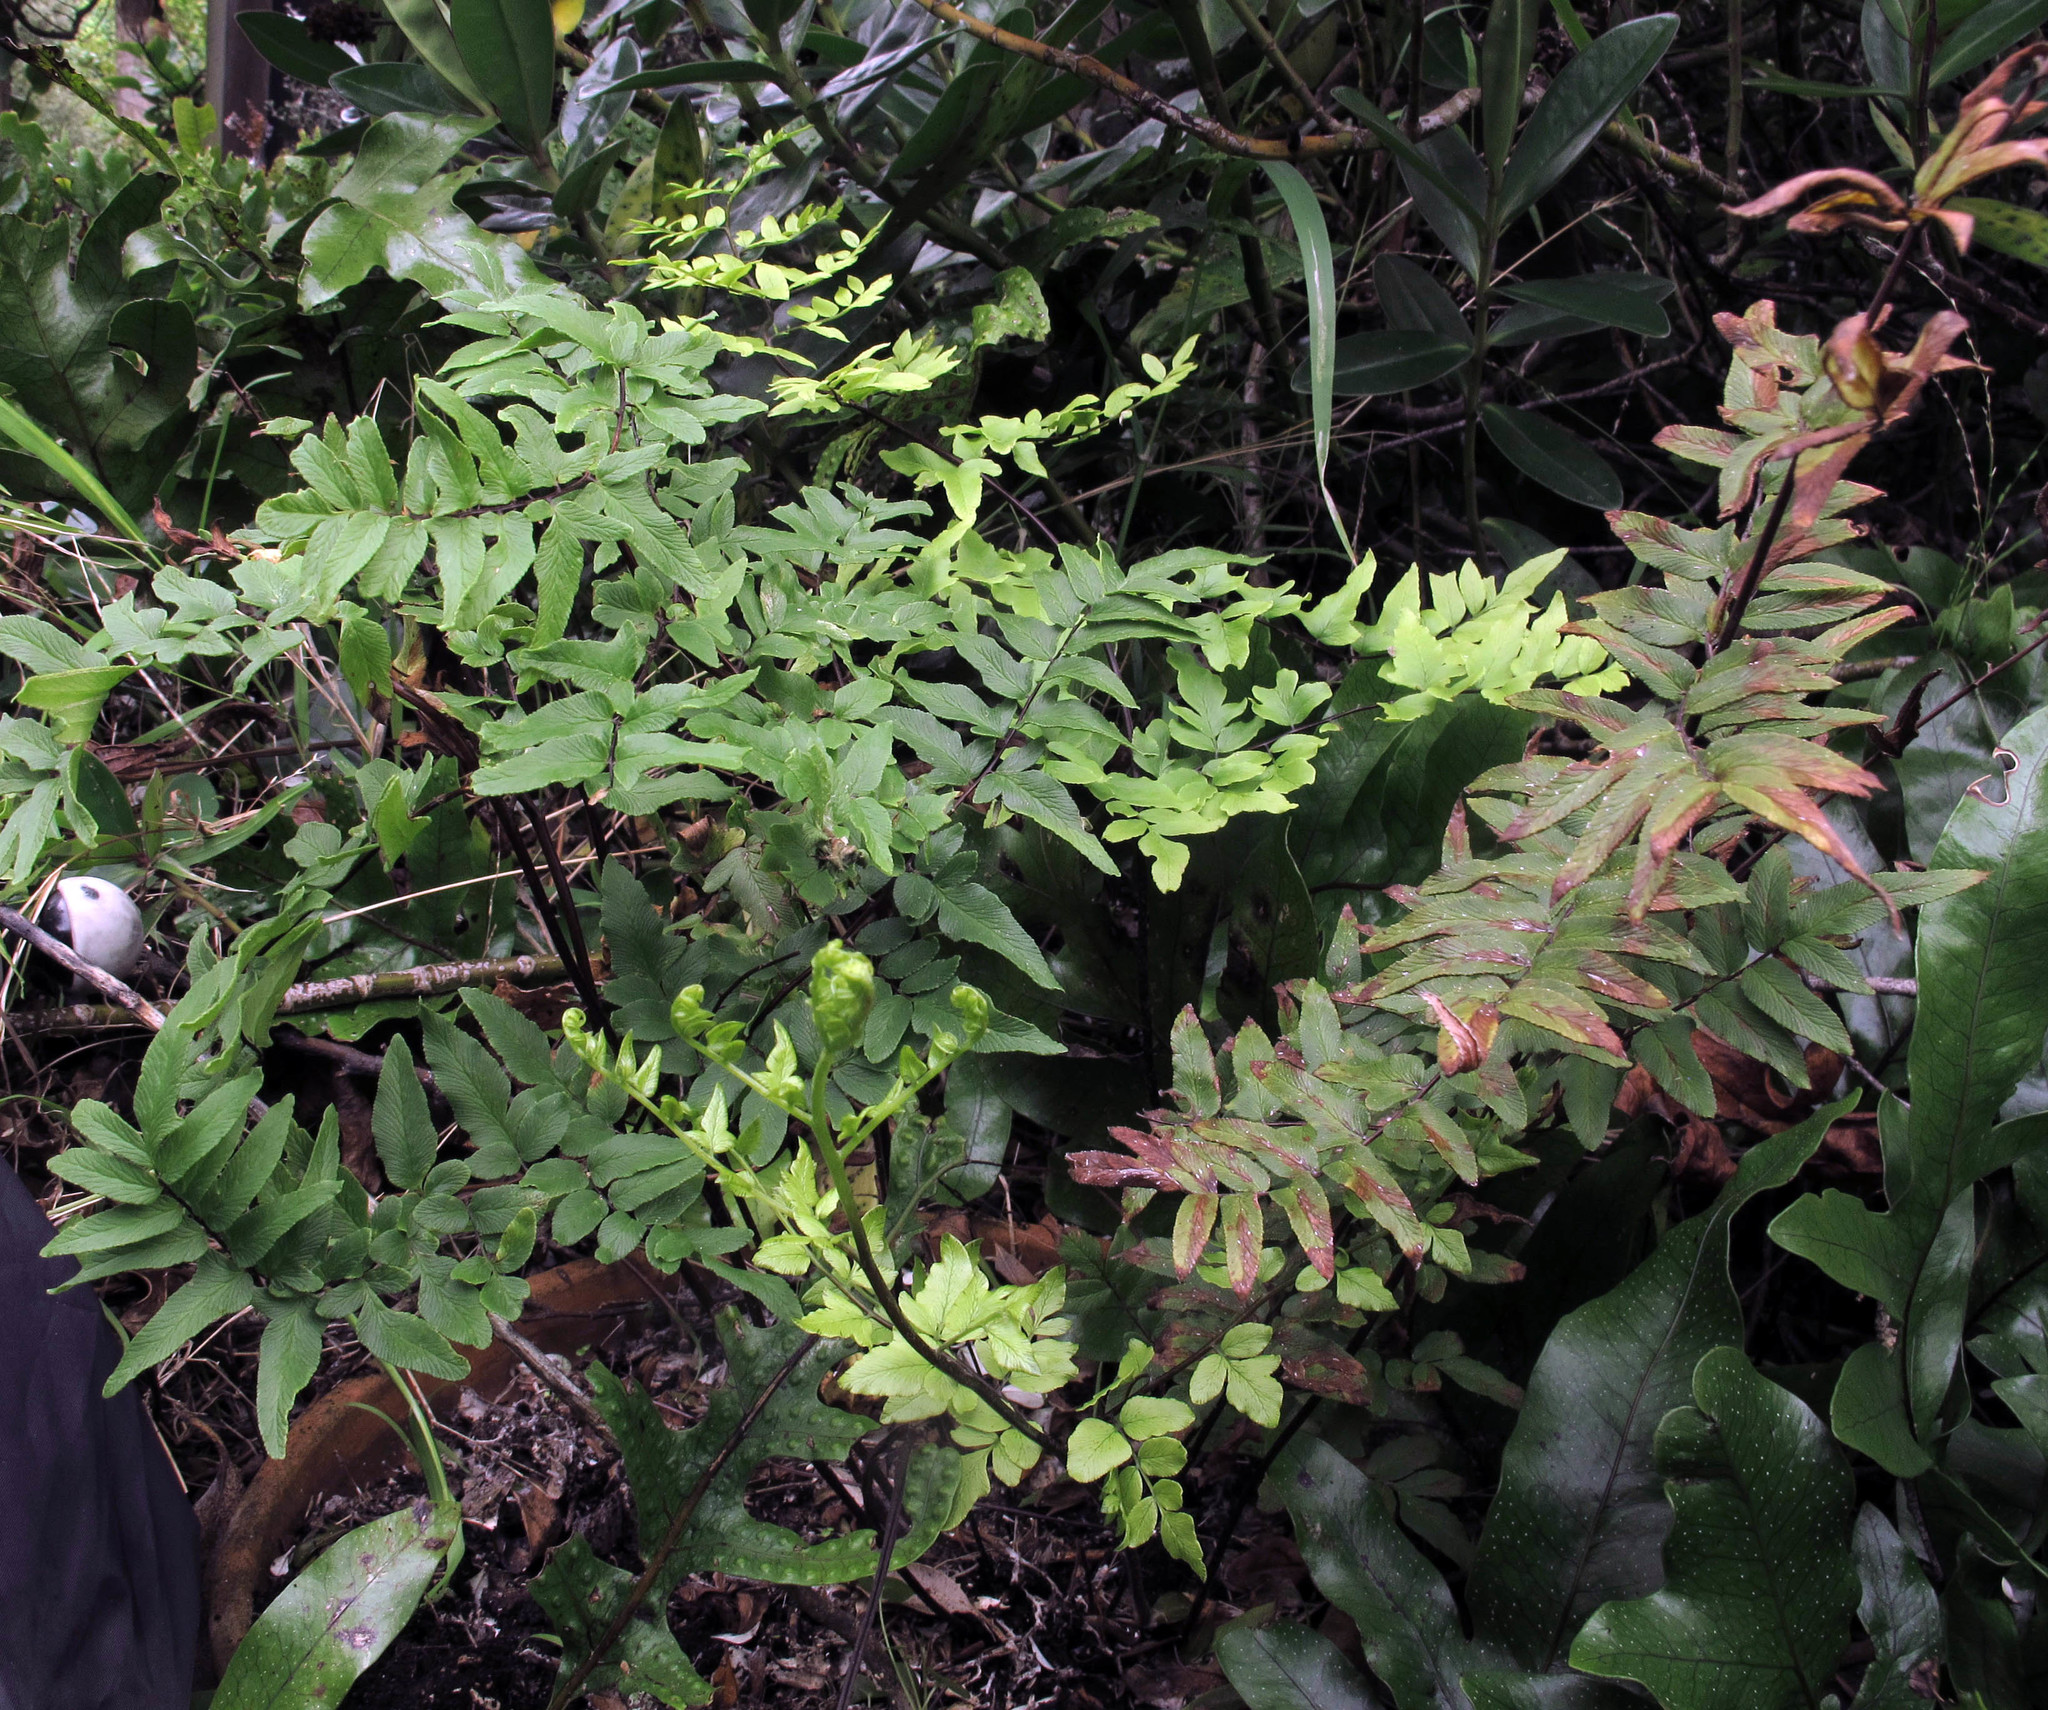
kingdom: Plantae
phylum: Tracheophyta
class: Polypodiopsida
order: Polypodiales
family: Pteridaceae
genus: Cheilanthes
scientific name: Cheilanthes viridis
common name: Green cliffbrake
